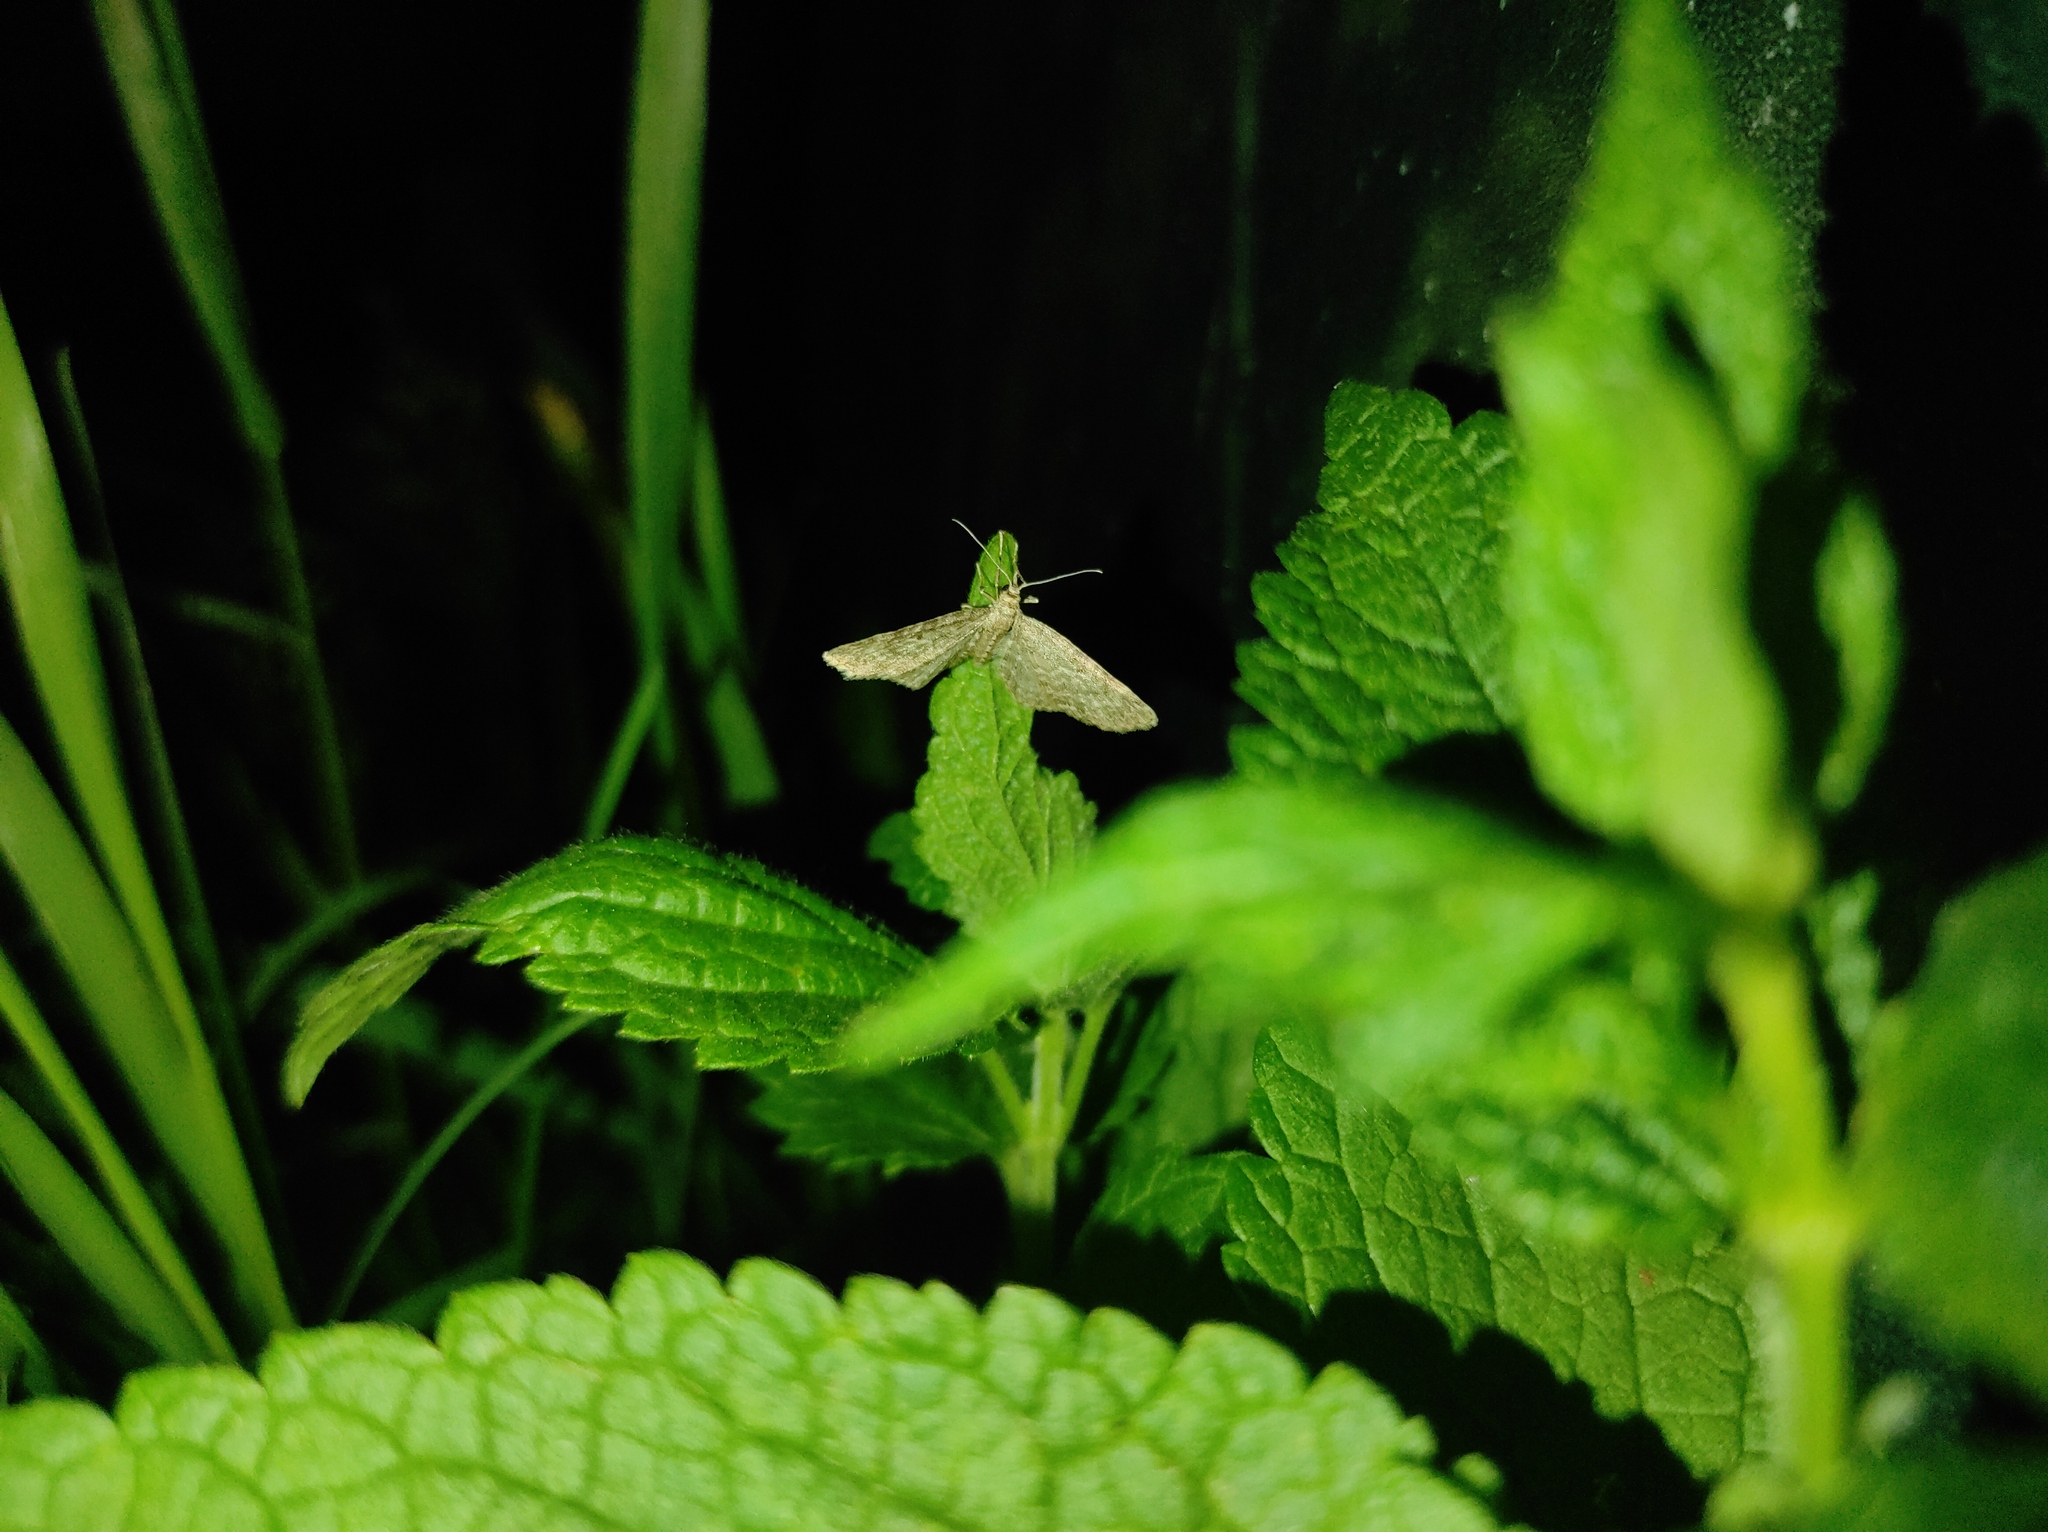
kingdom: Plantae
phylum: Tracheophyta
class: Magnoliopsida
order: Lamiales
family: Lamiaceae
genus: Lamium
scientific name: Lamium album
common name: White dead-nettle
